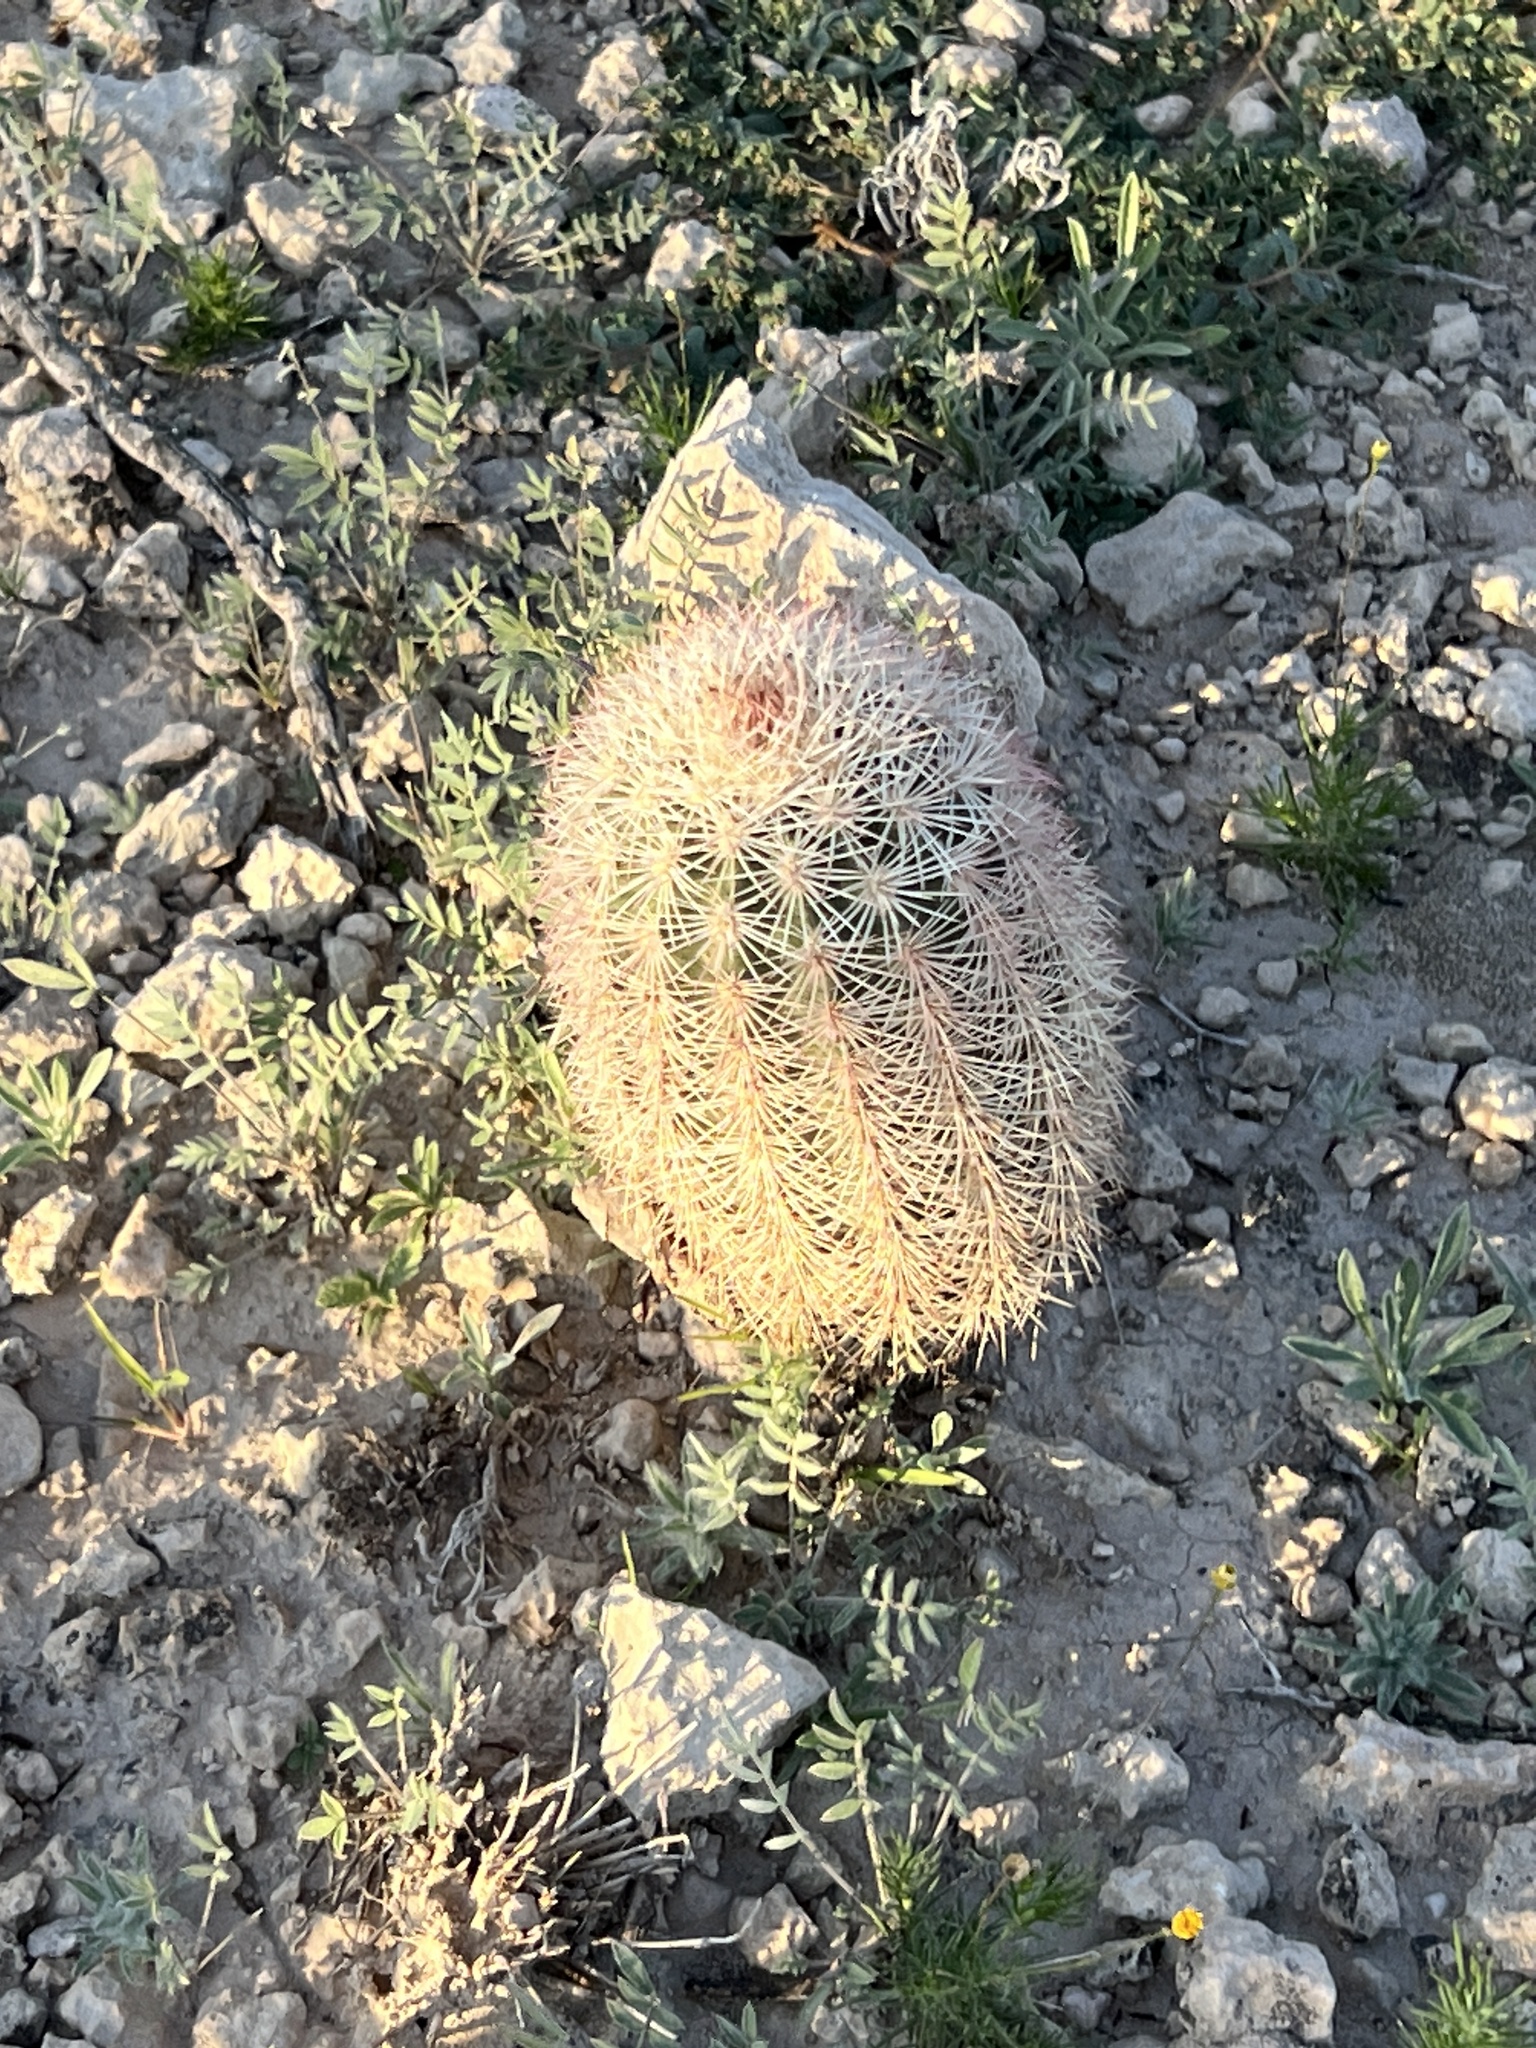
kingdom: Plantae
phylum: Tracheophyta
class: Magnoliopsida
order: Caryophyllales
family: Cactaceae
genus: Echinocereus
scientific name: Echinocereus dasyacanthus
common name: Spiny hedgehog cactus
